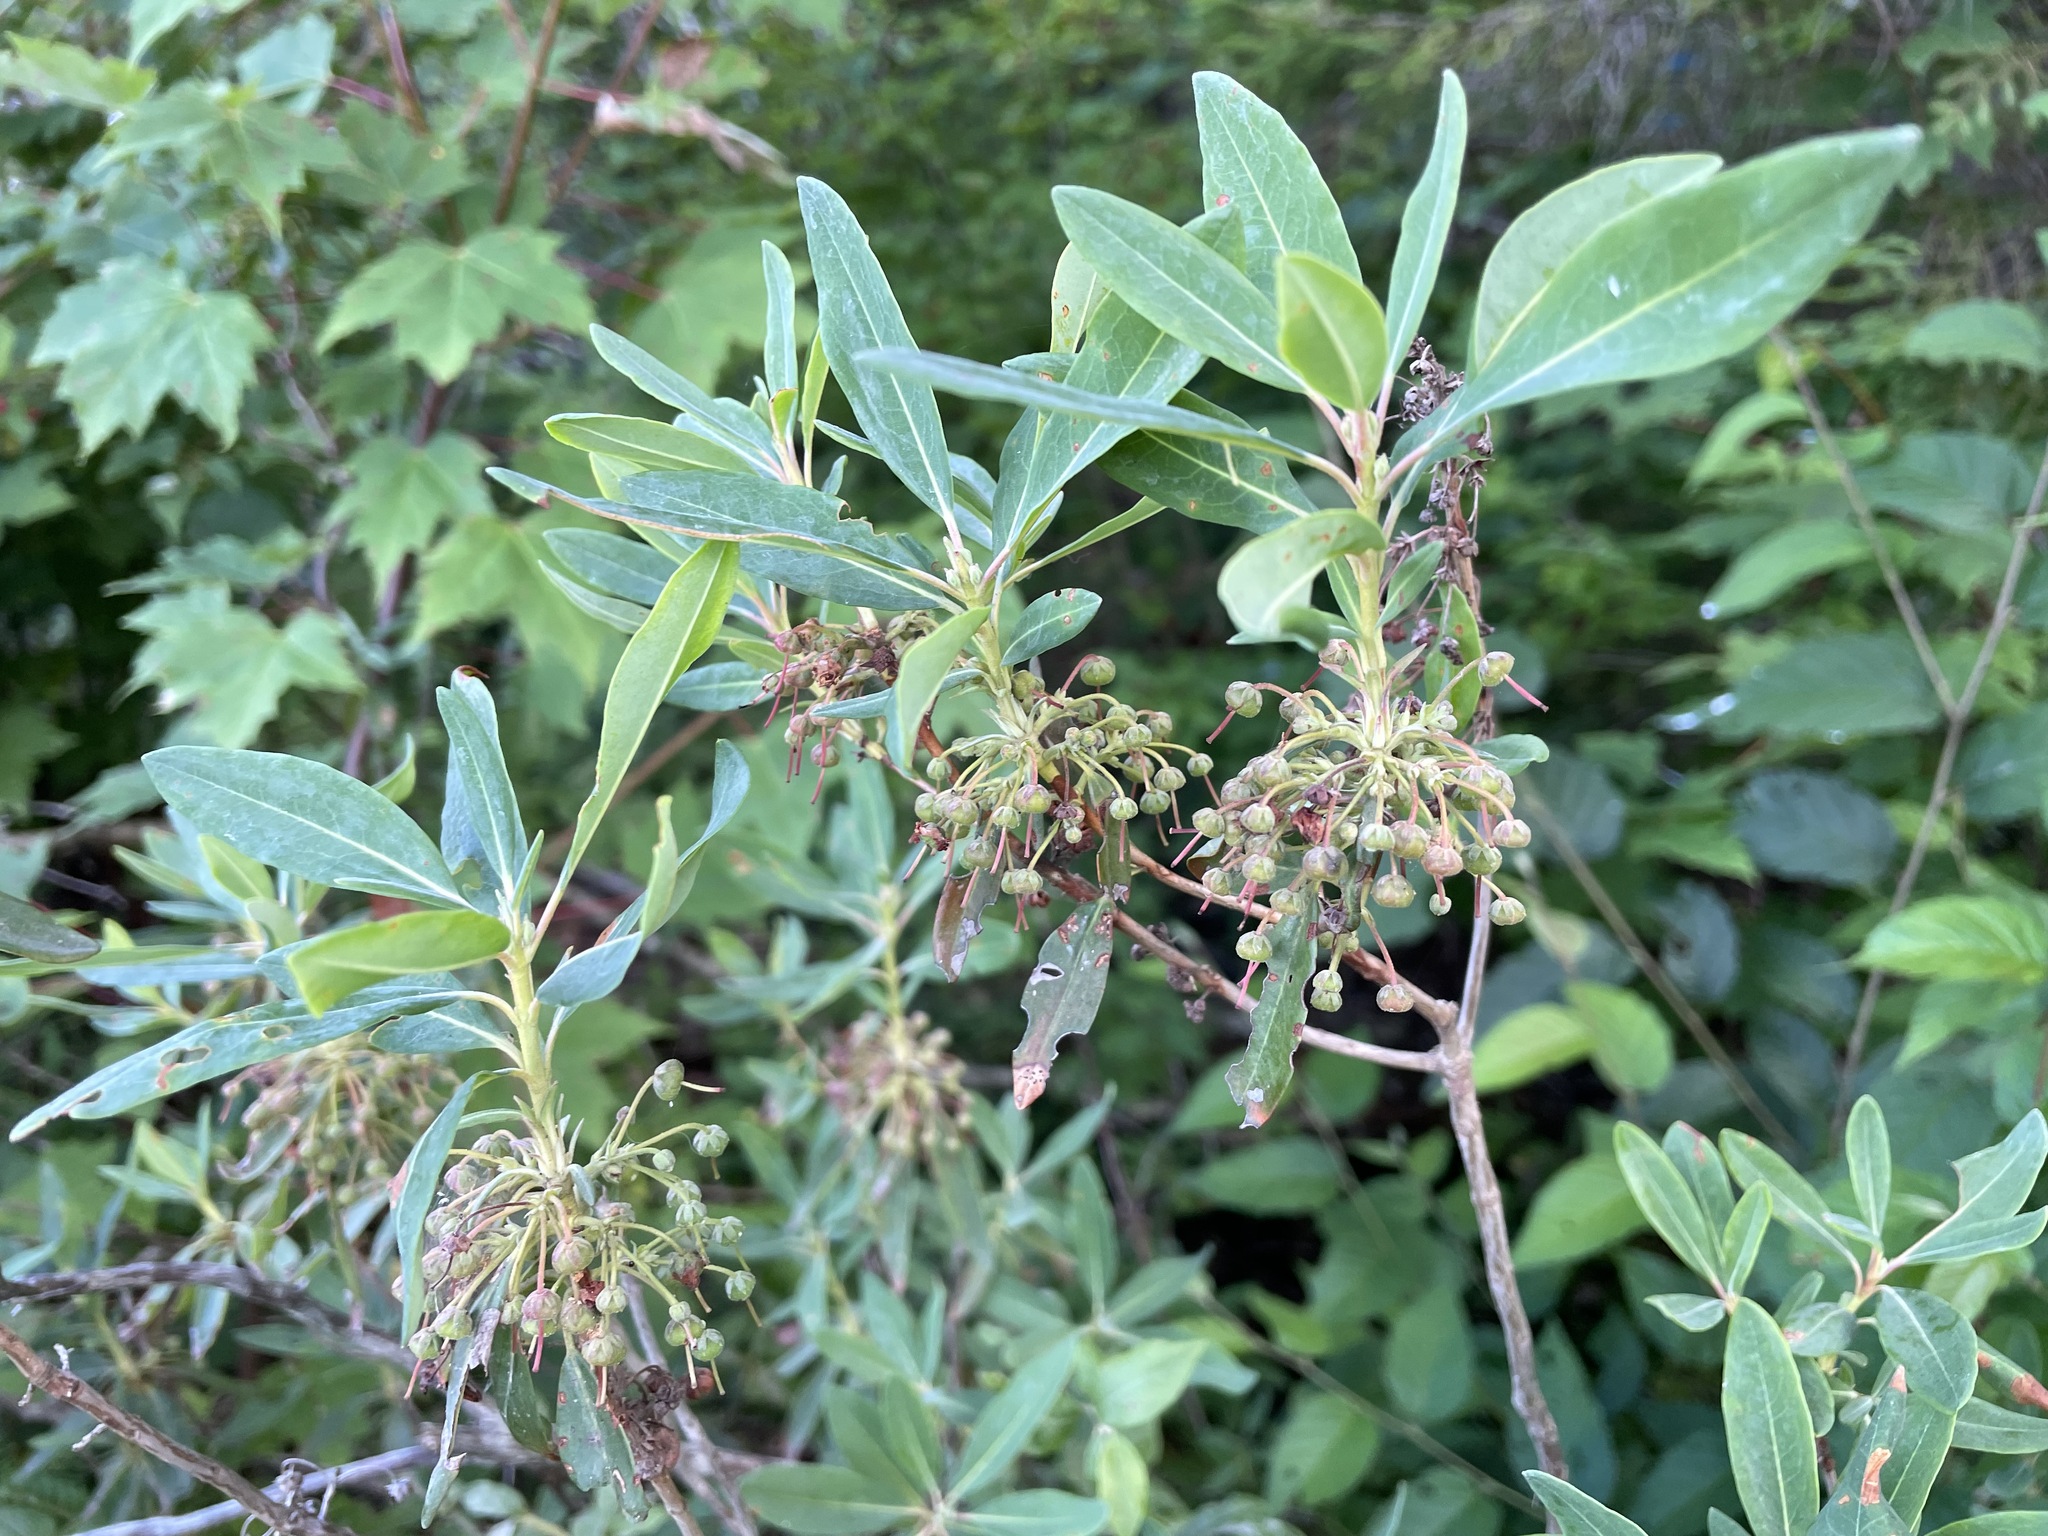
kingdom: Plantae
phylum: Tracheophyta
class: Magnoliopsida
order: Ericales
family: Ericaceae
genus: Kalmia
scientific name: Kalmia angustifolia
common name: Sheep-laurel
